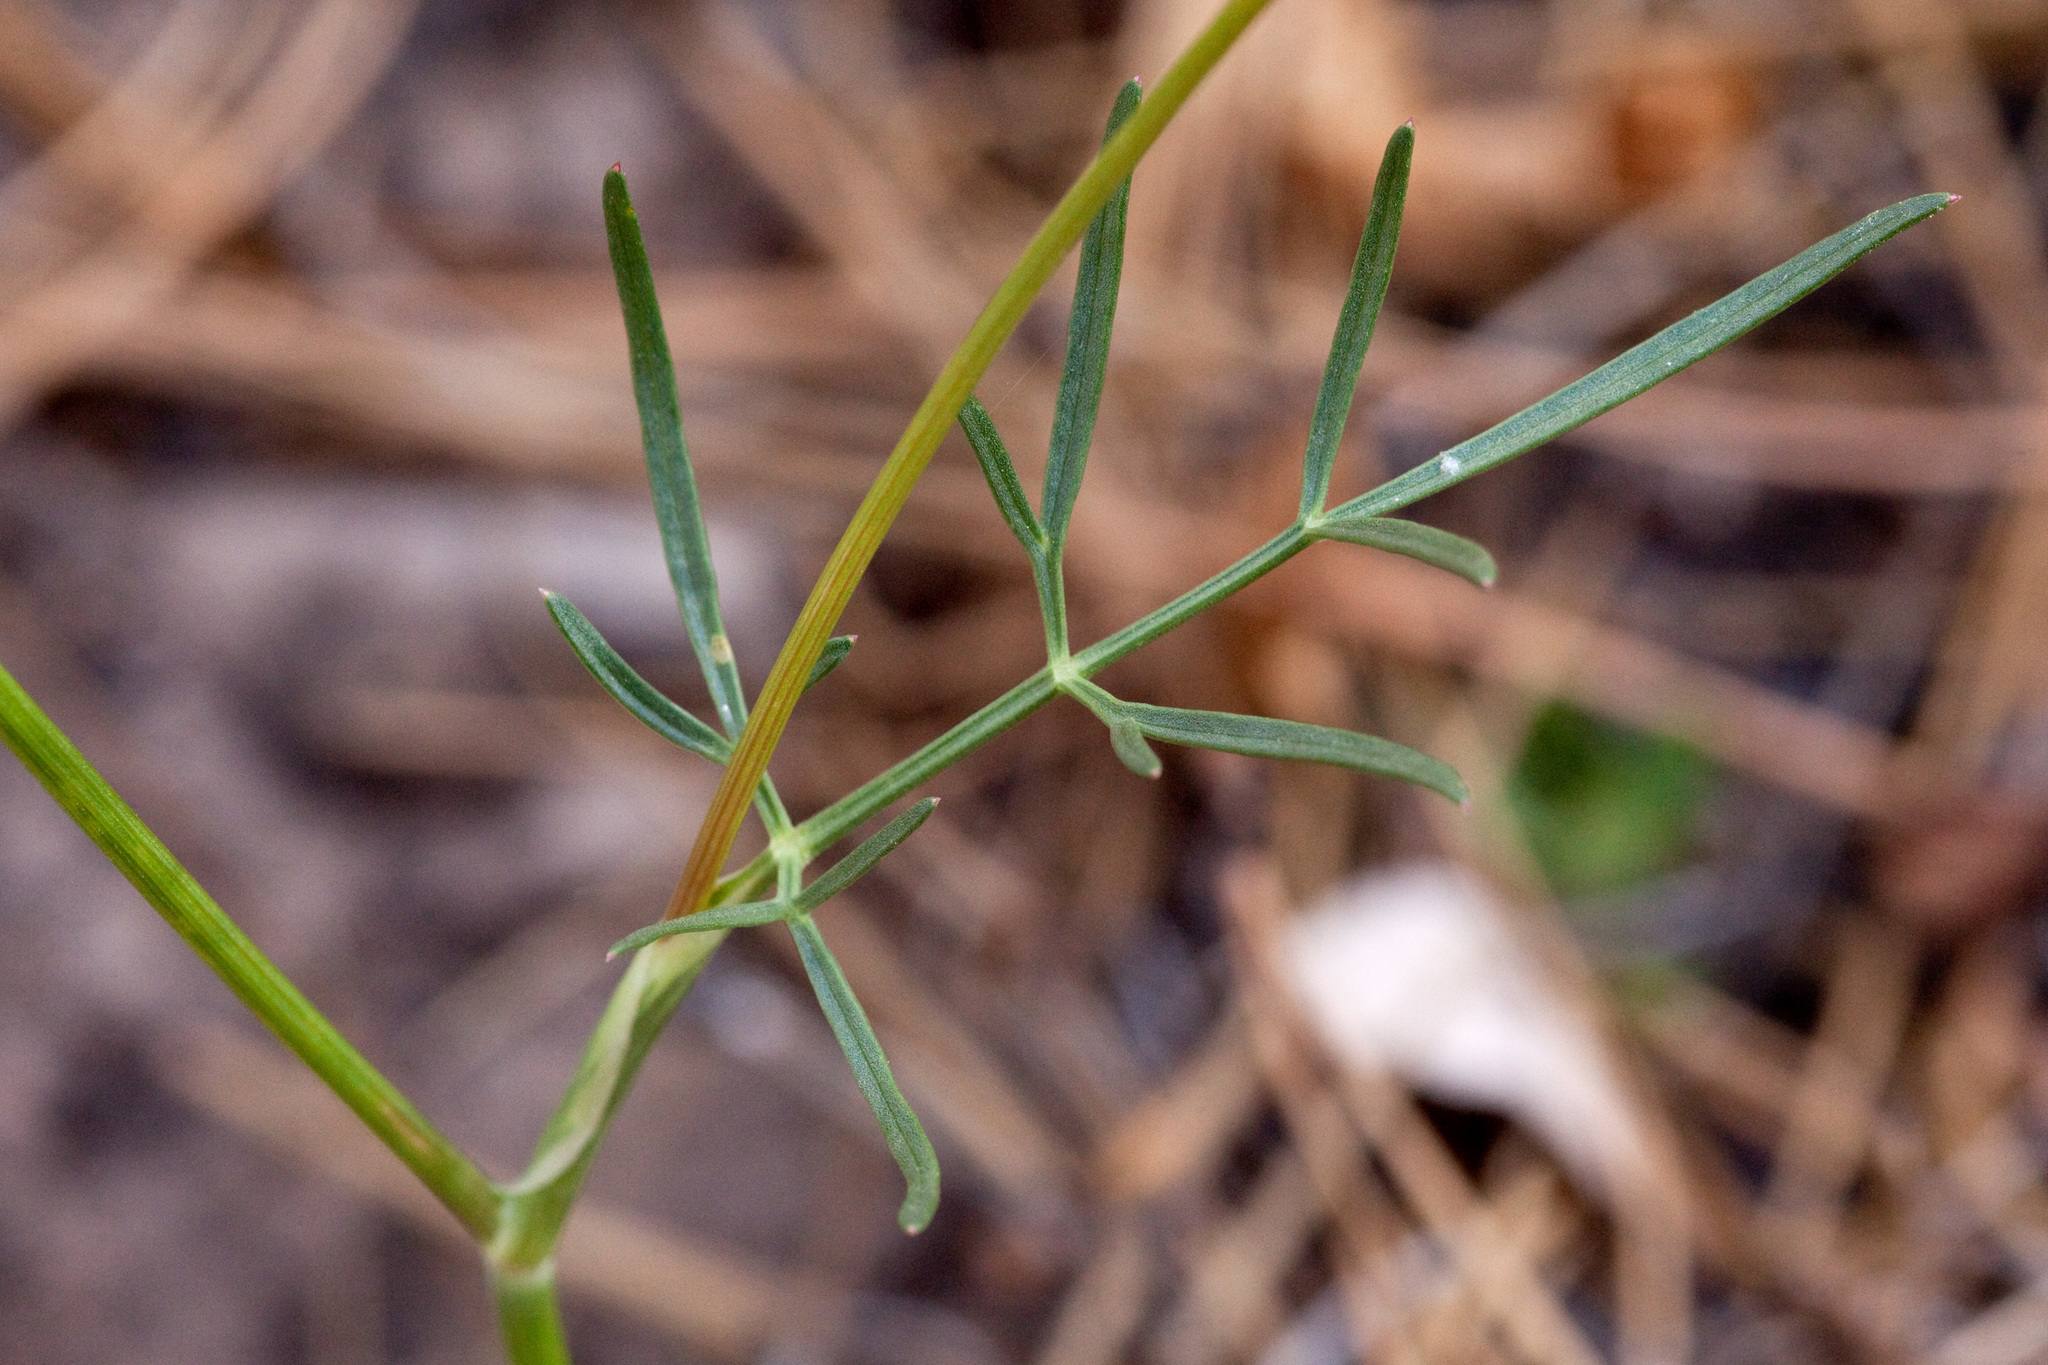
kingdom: Plantae
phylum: Tracheophyta
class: Magnoliopsida
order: Apiales
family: Apiaceae
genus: Cymopterus
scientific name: Cymopterus lemmonii
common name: Lemmon's spring-parsley
